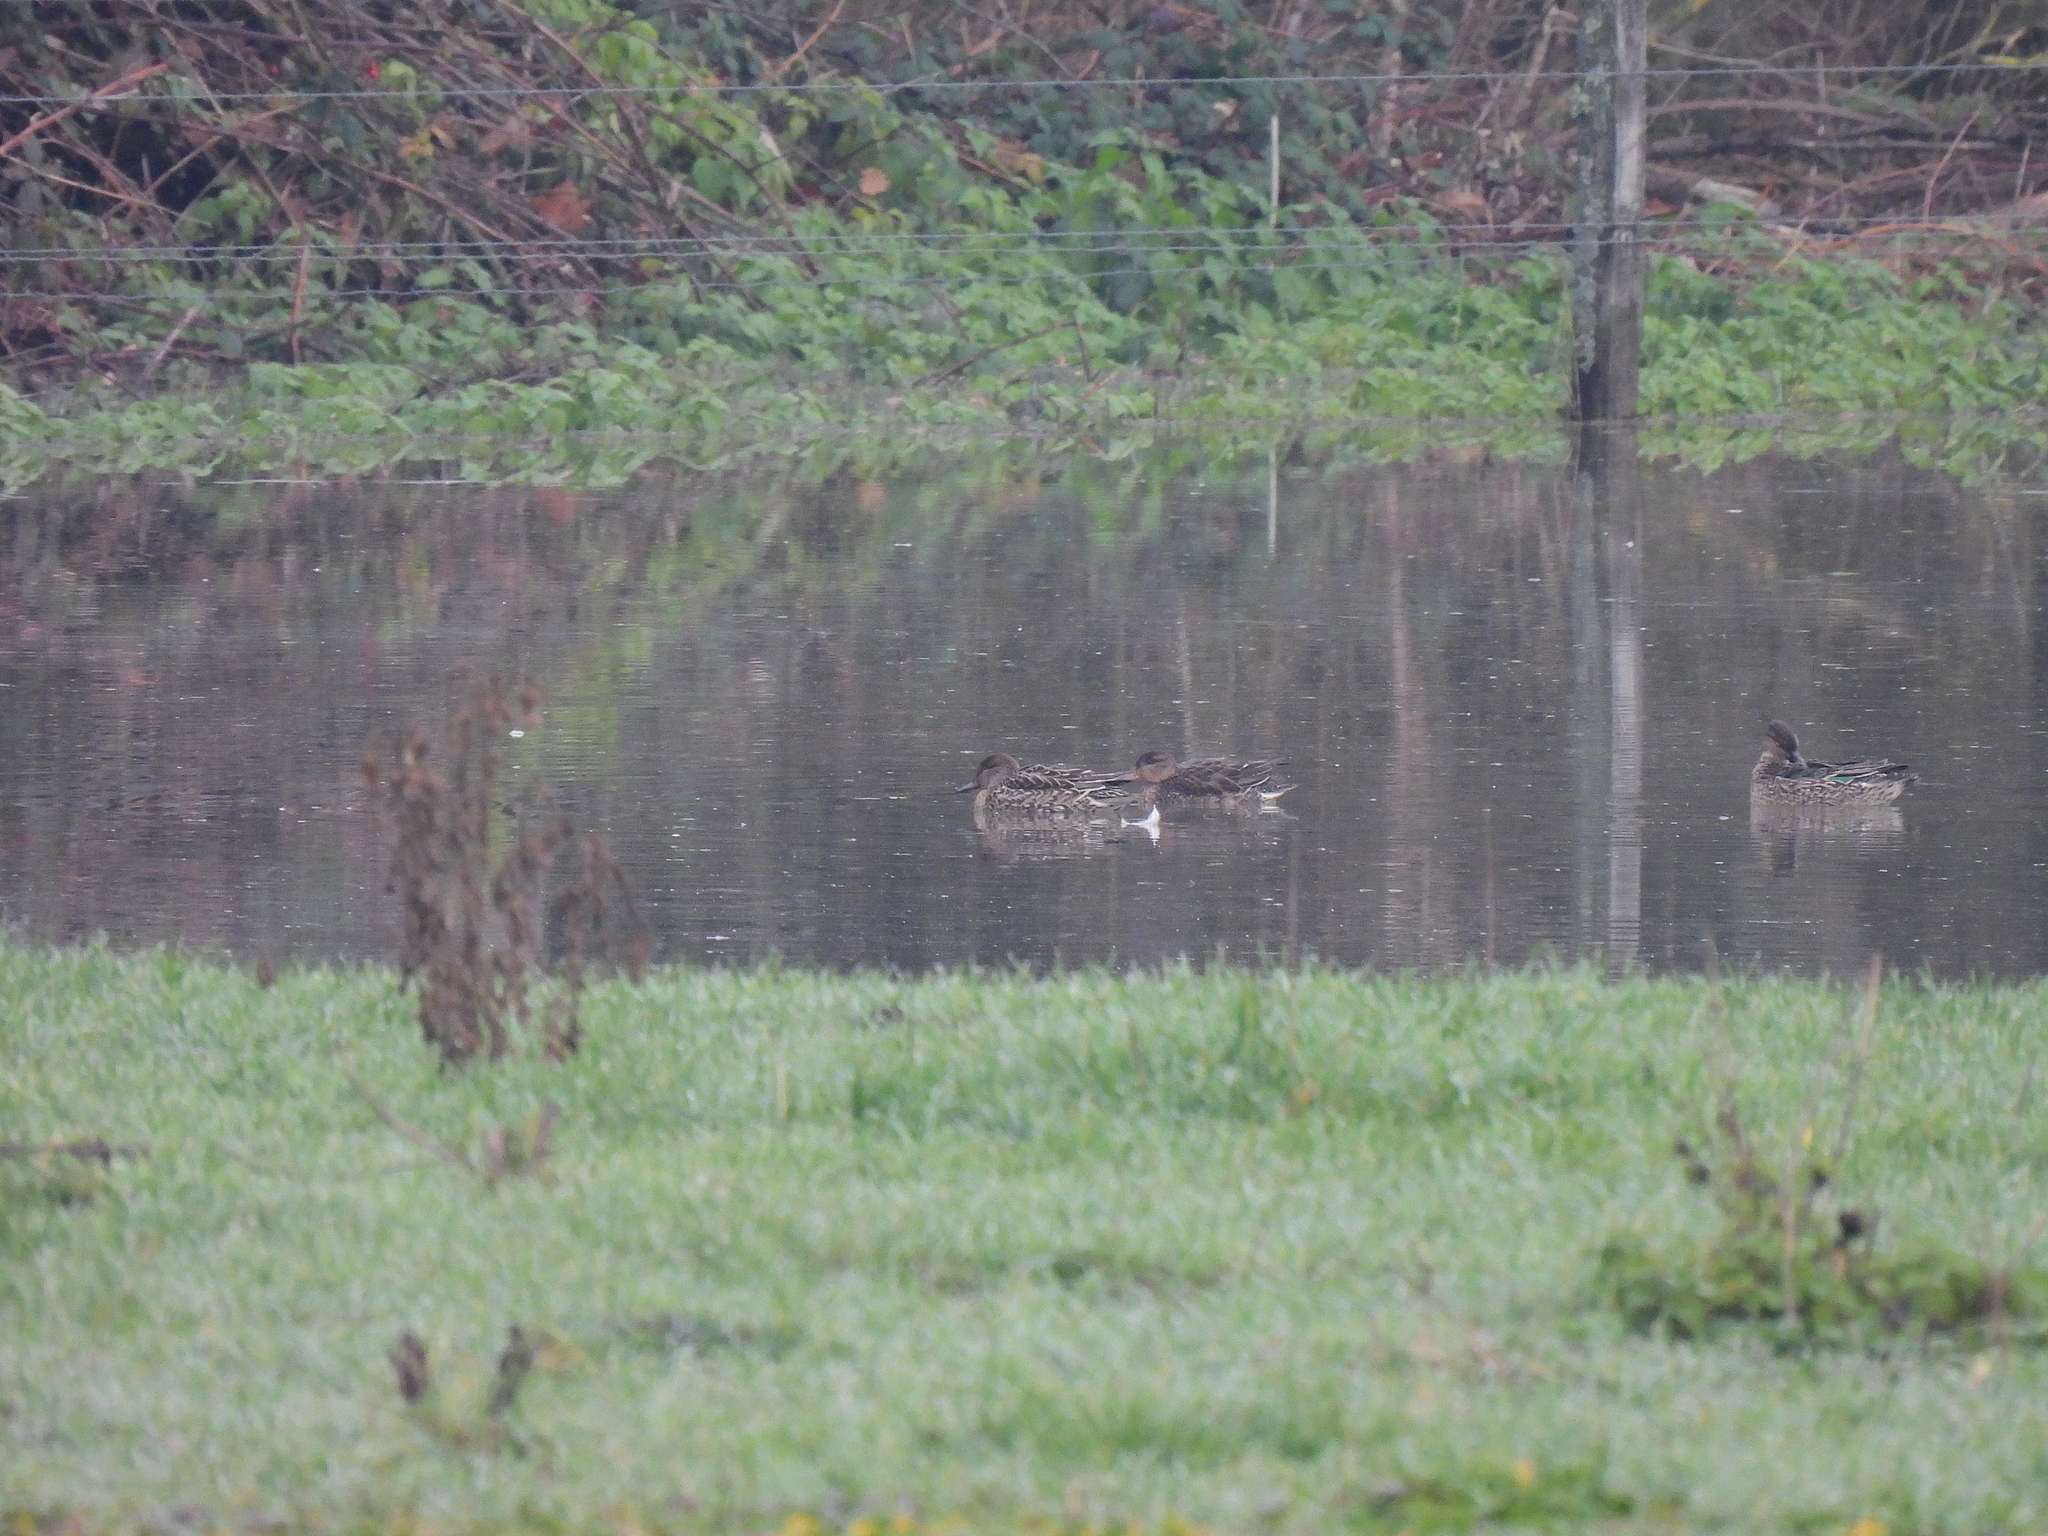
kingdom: Animalia
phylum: Chordata
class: Aves
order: Anseriformes
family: Anatidae
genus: Anas
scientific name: Anas crecca
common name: Eurasian teal
